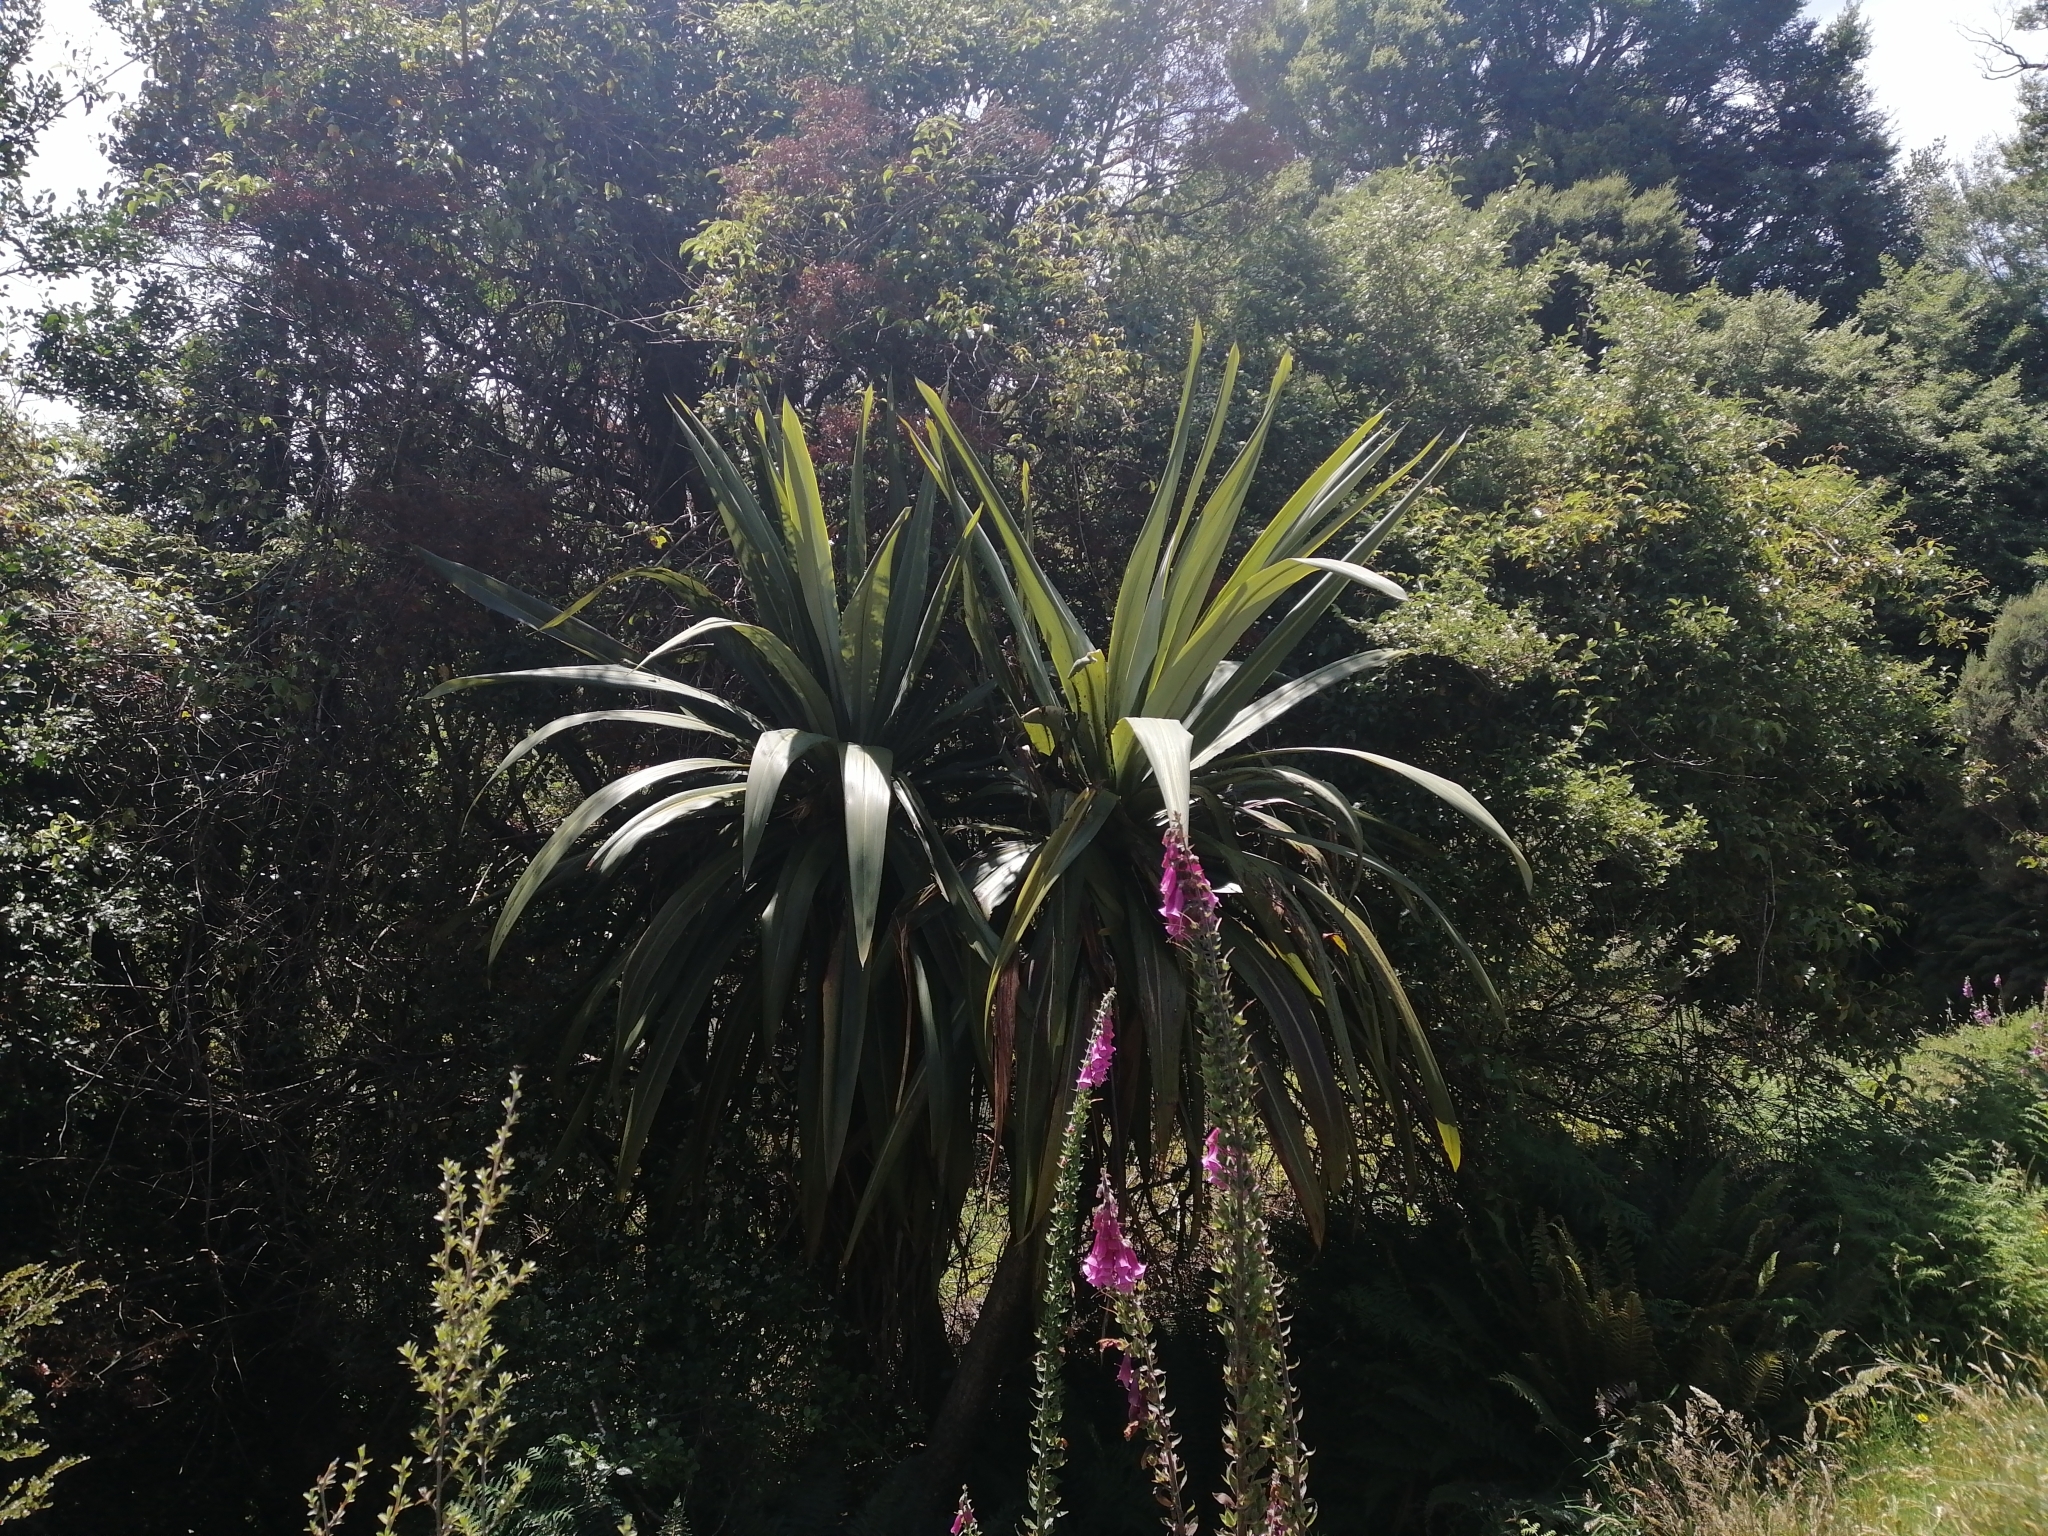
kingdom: Plantae
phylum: Tracheophyta
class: Liliopsida
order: Asparagales
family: Asparagaceae
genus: Cordyline
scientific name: Cordyline indivisa
